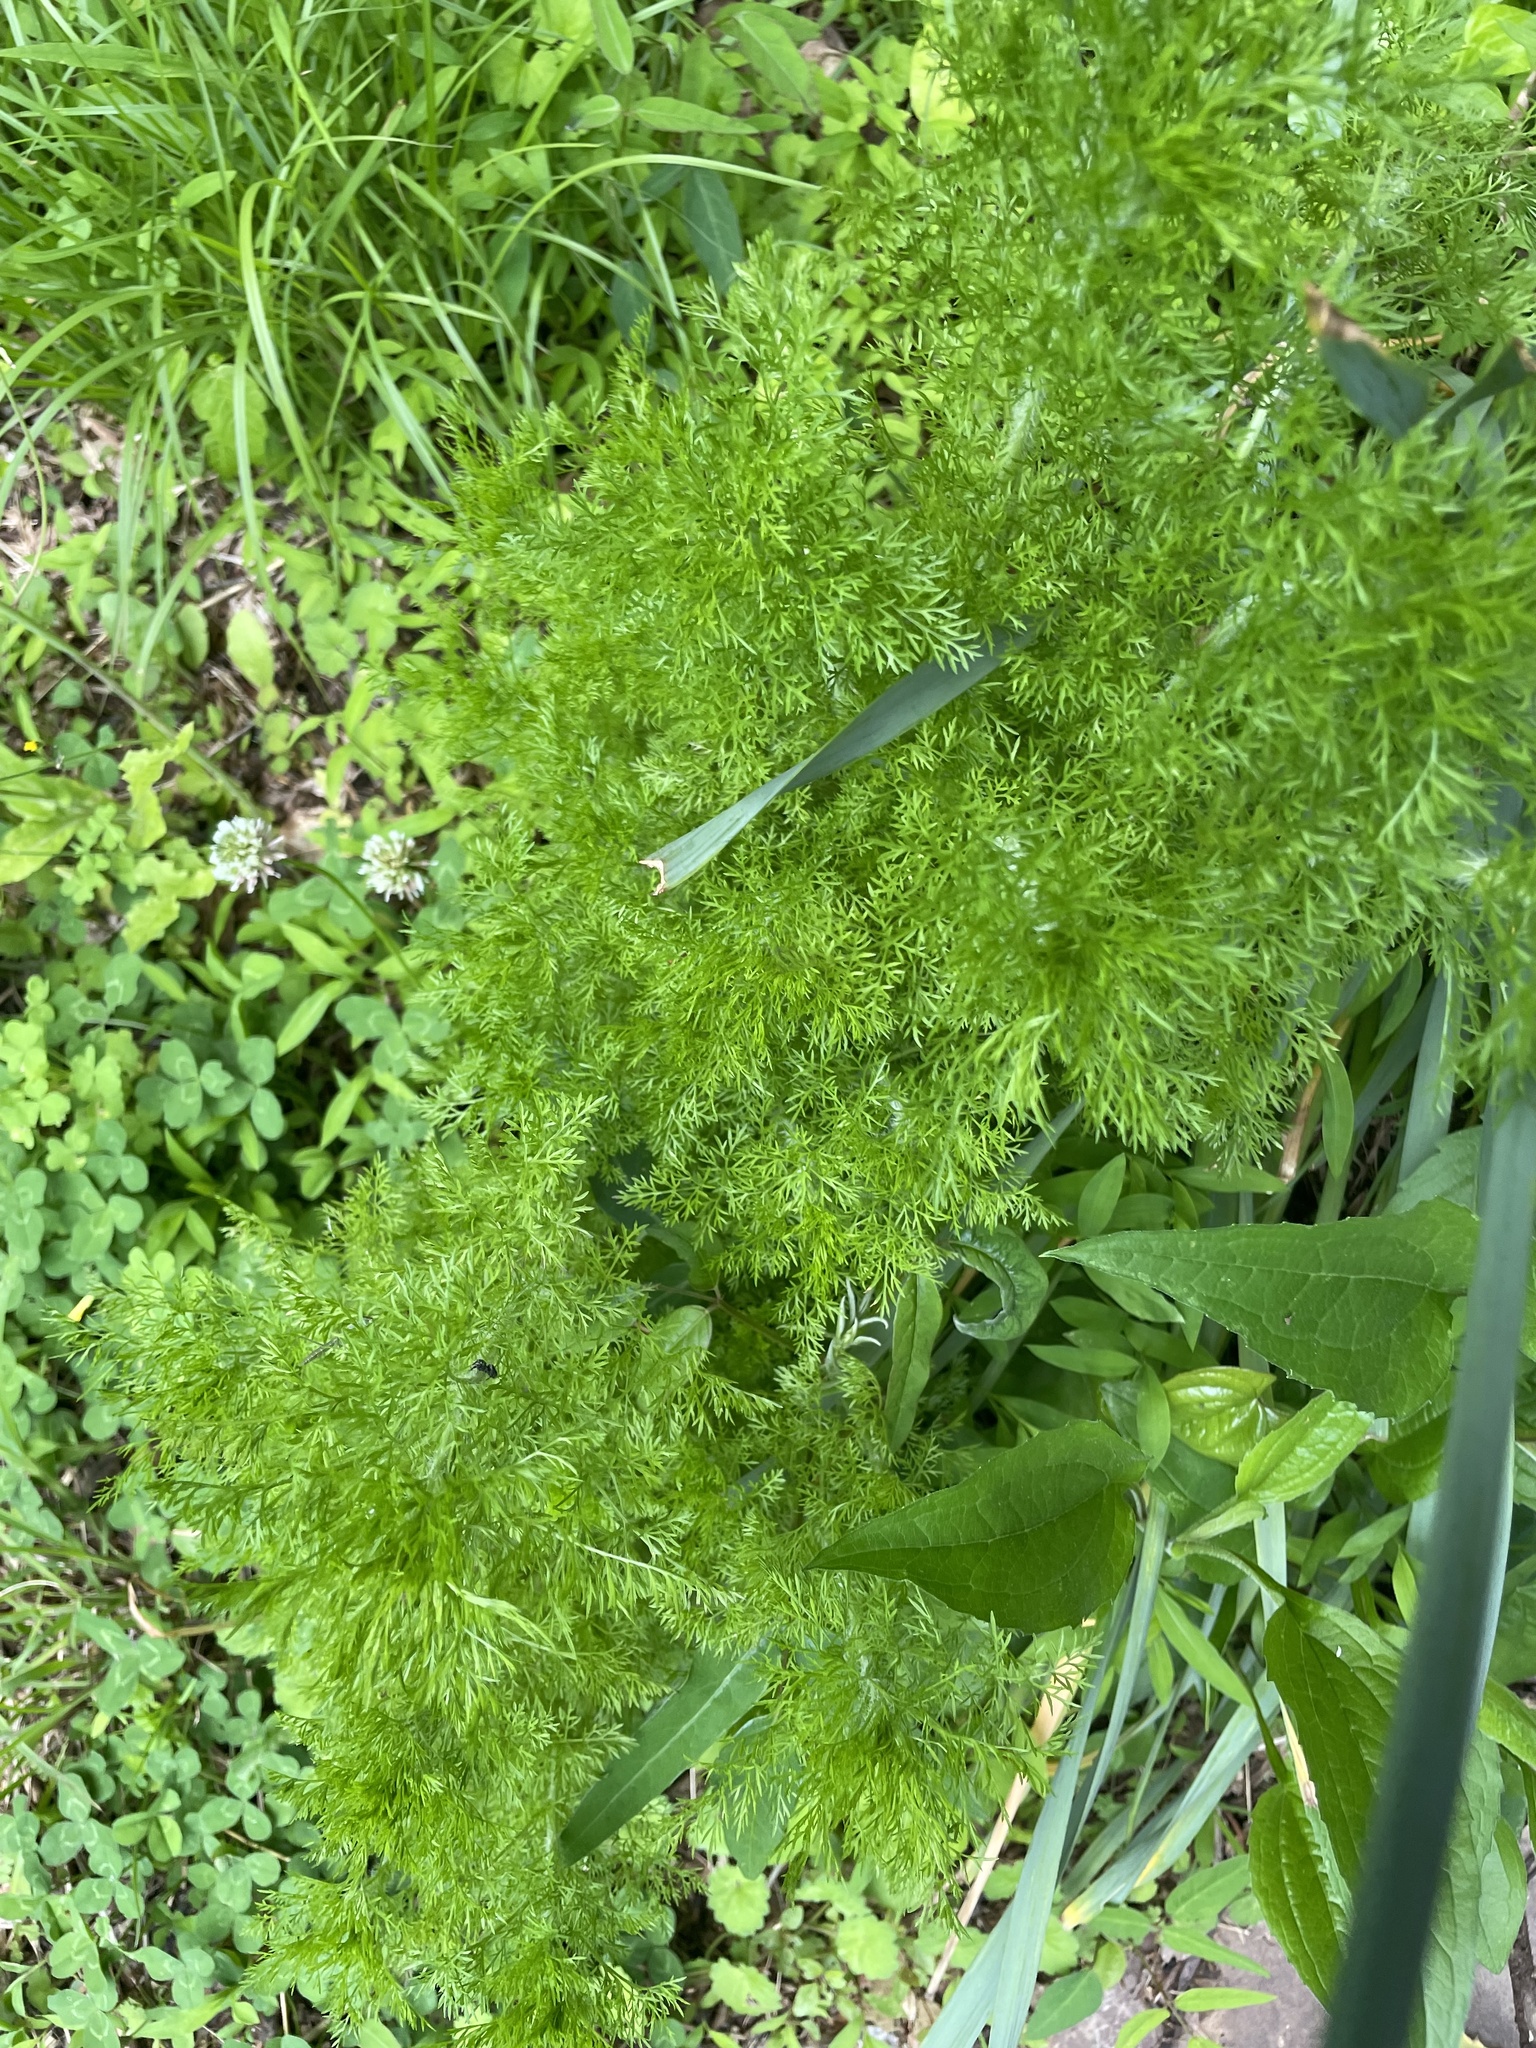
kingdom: Plantae
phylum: Tracheophyta
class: Magnoliopsida
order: Asterales
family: Asteraceae
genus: Eupatorium
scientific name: Eupatorium capillifolium
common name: Dog-fennel
